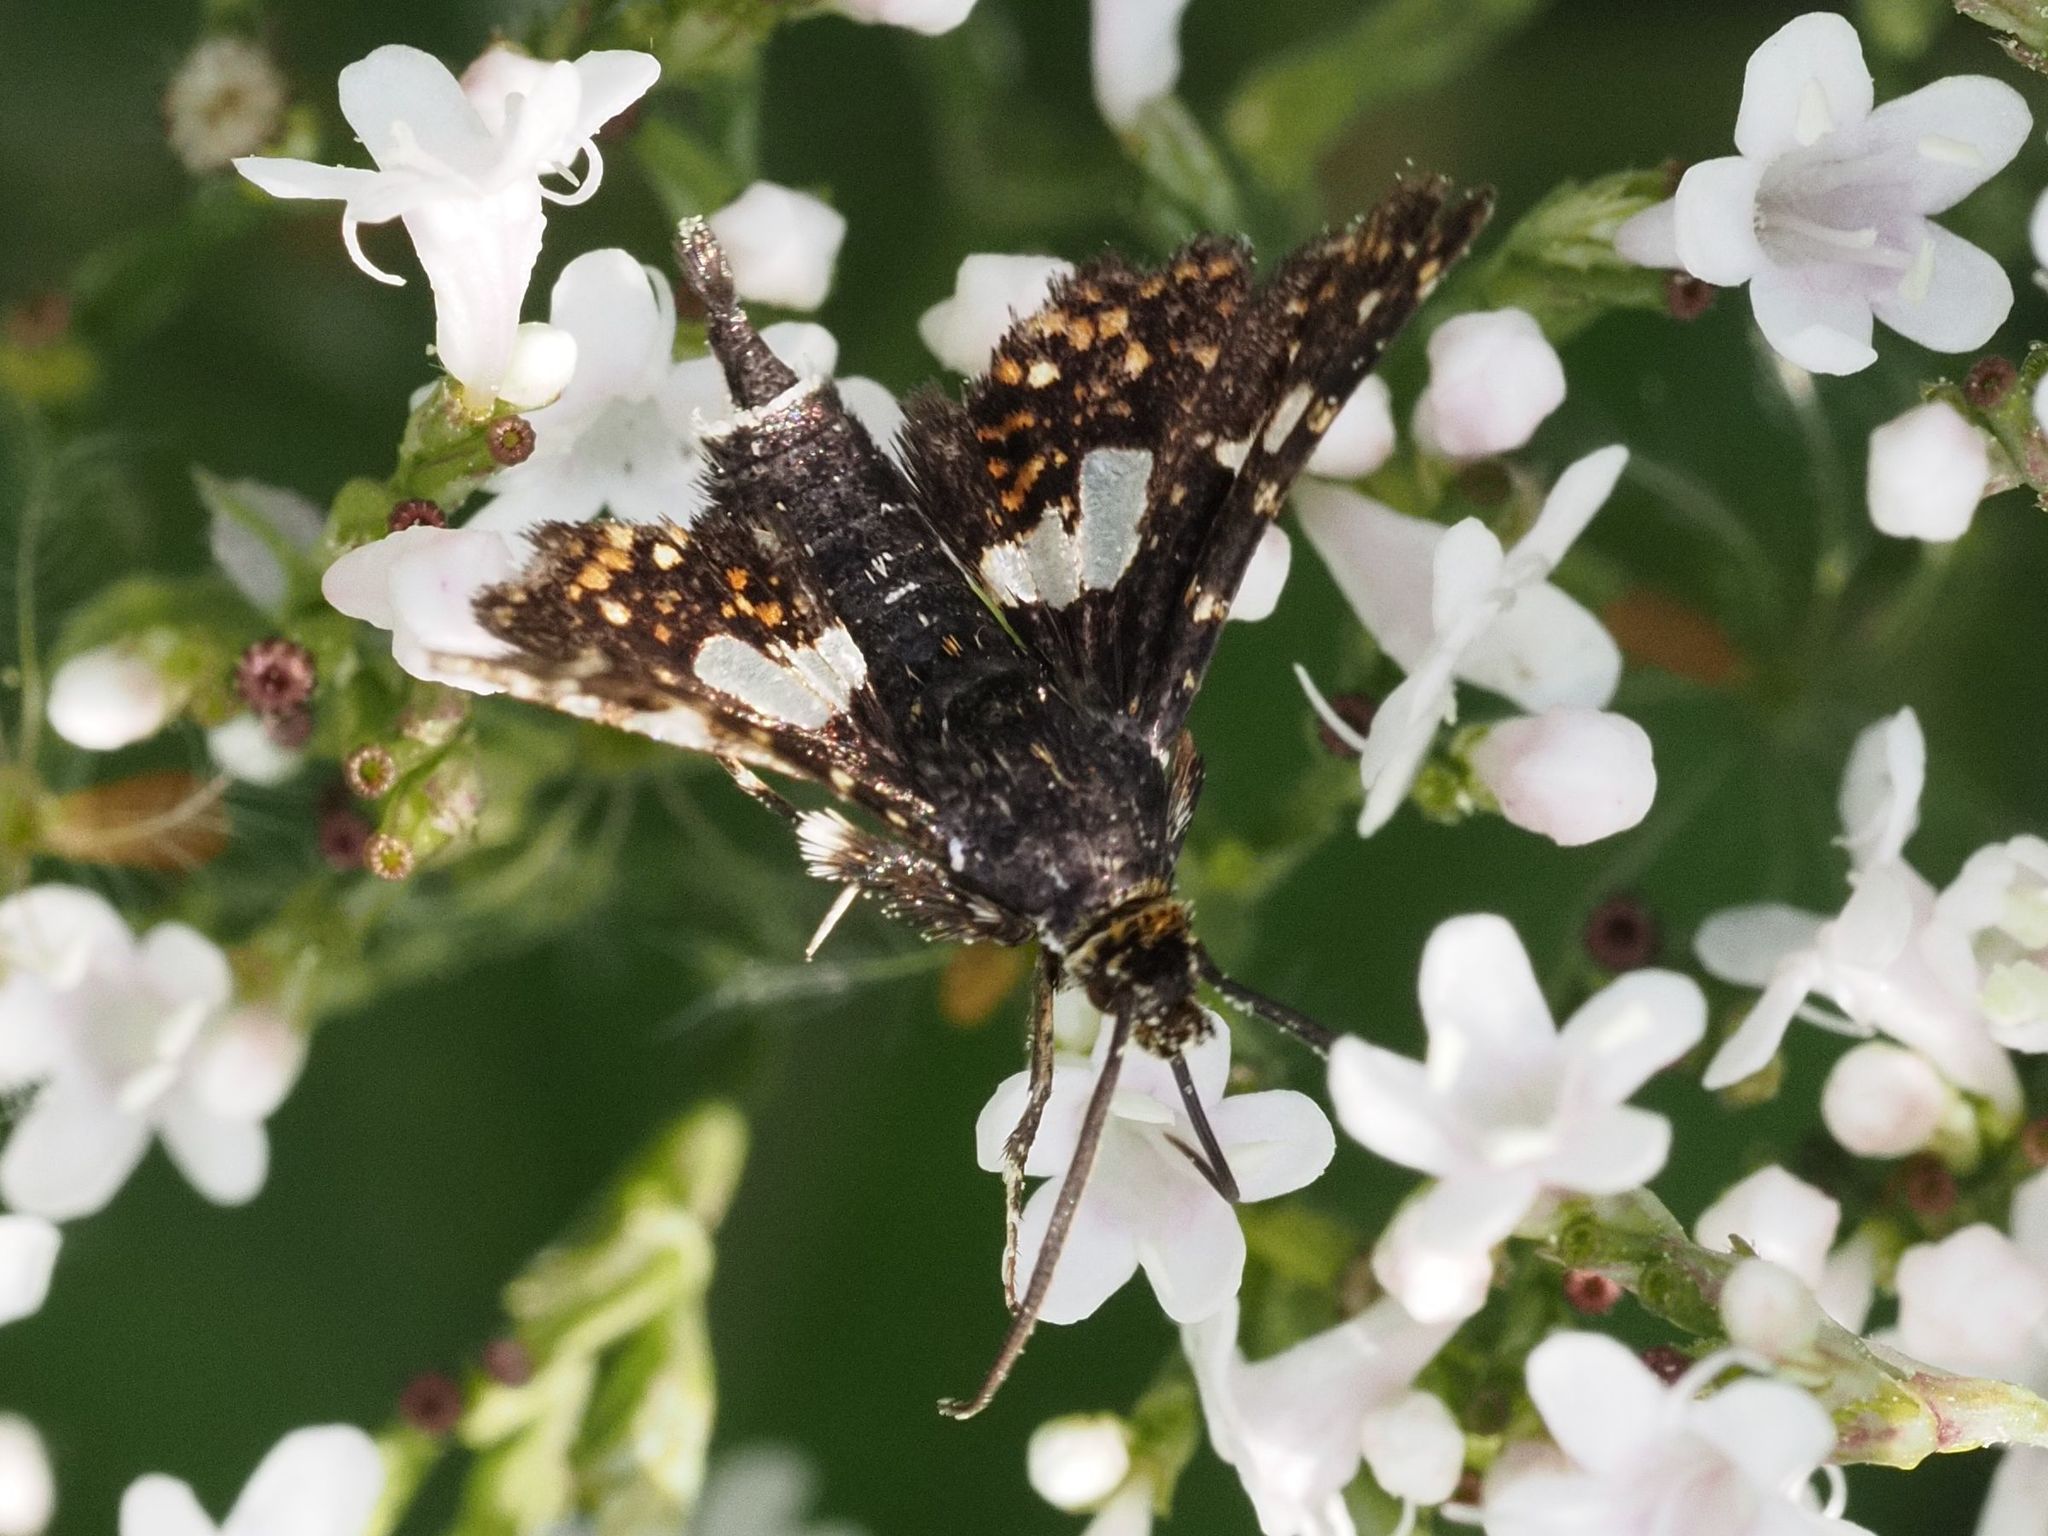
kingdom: Animalia
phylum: Arthropoda
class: Insecta
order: Lepidoptera
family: Thyrididae
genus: Thyris
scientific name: Thyris fenestrella
